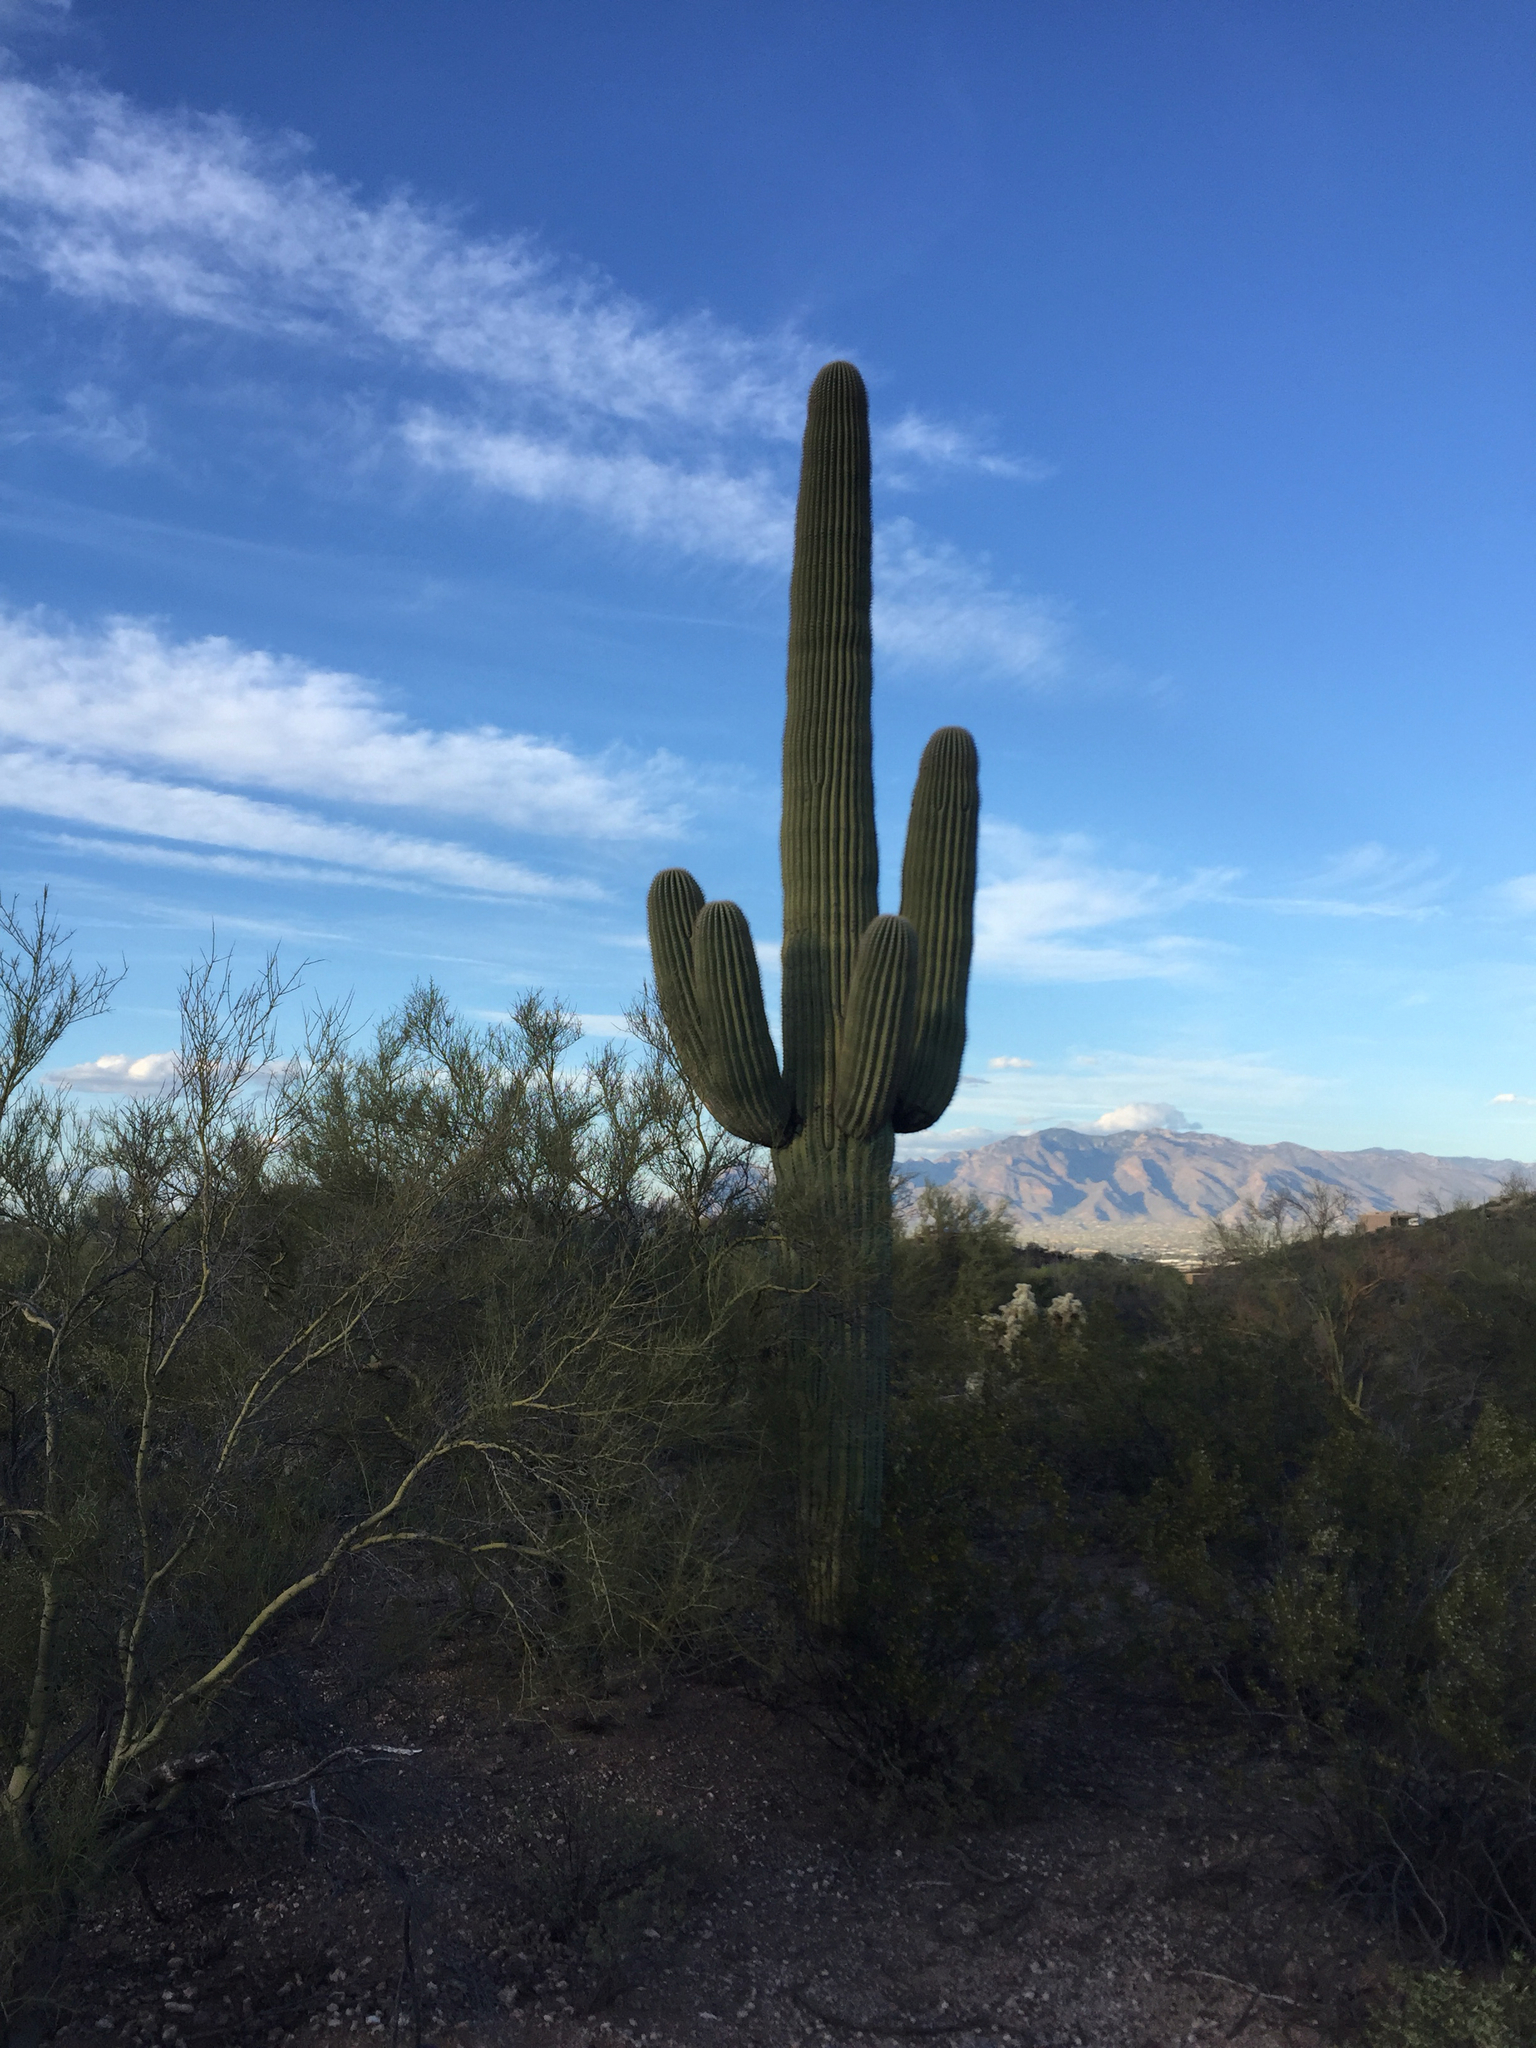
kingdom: Plantae
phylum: Tracheophyta
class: Magnoliopsida
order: Caryophyllales
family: Cactaceae
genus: Carnegiea
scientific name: Carnegiea gigantea
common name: Saguaro
